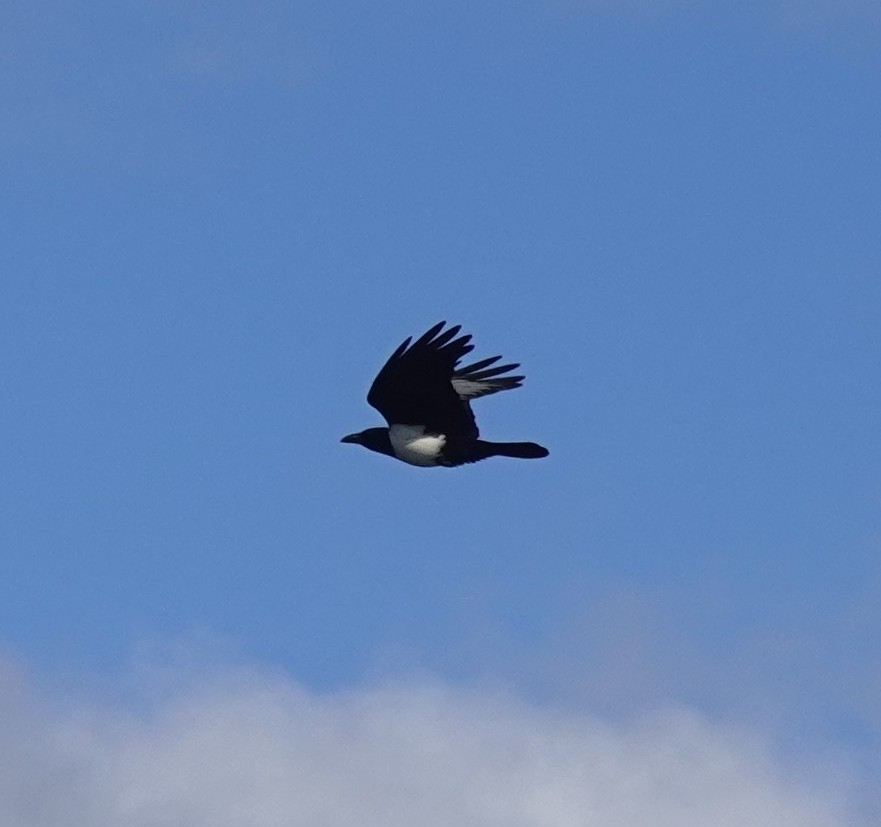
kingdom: Animalia
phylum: Chordata
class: Aves
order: Passeriformes
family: Corvidae
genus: Corvus
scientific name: Corvus albus
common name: Pied crow
